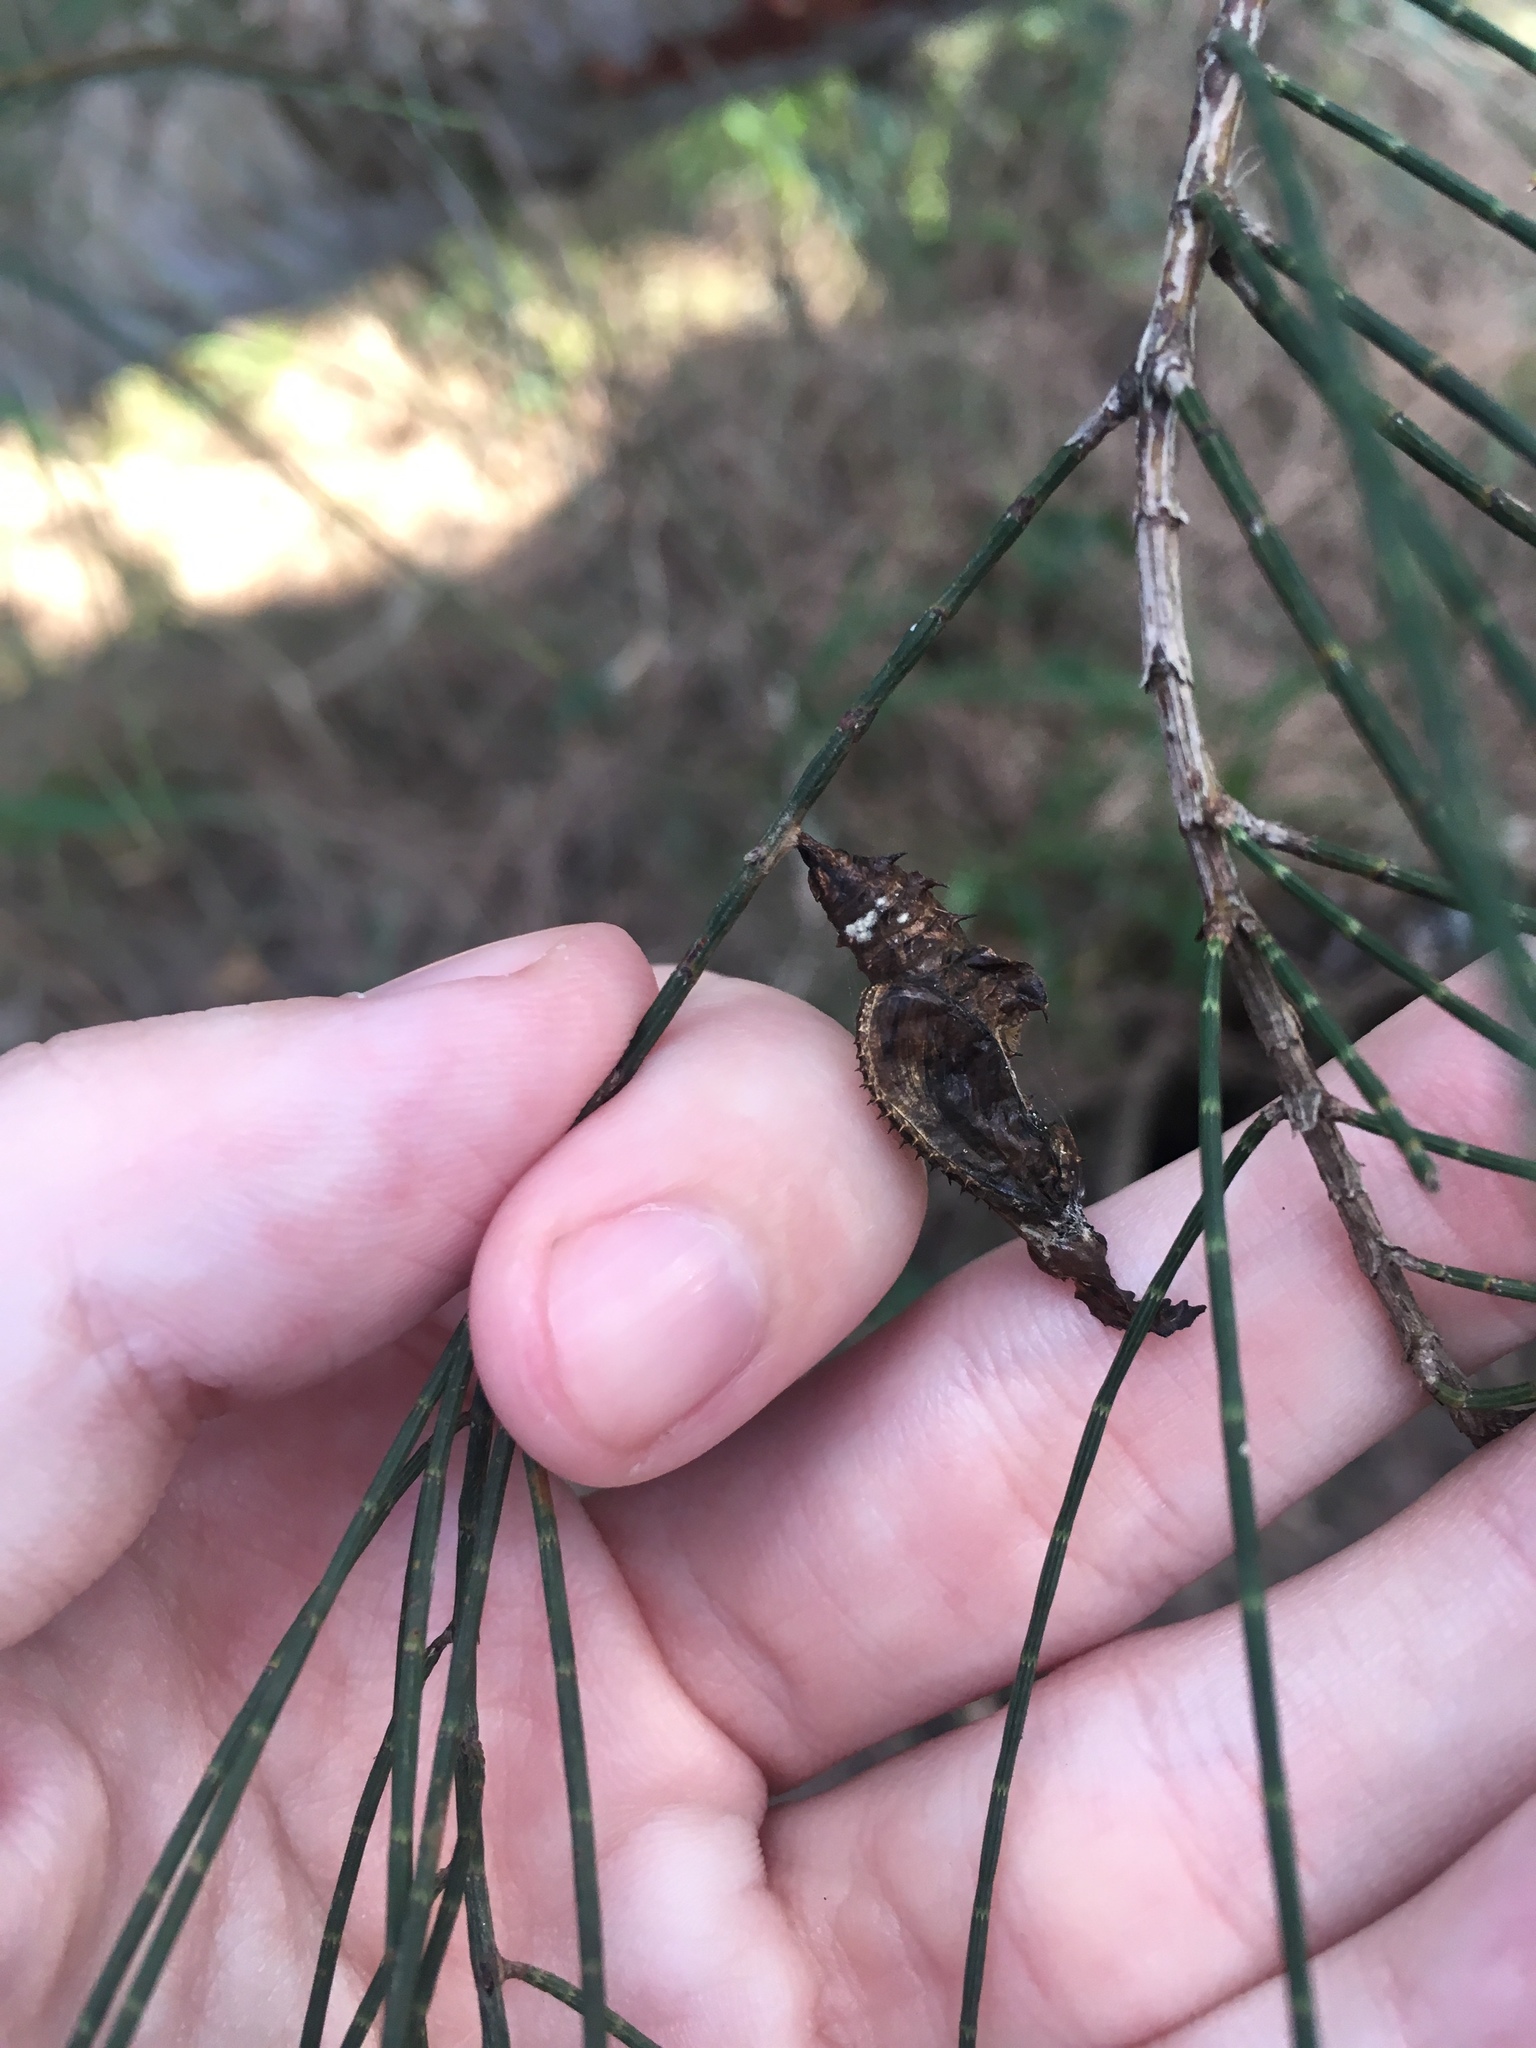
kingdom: Animalia
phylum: Arthropoda
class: Insecta
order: Lepidoptera
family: Nymphalidae
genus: Heliconius
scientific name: Heliconius charithonia
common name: Zebra long wing
